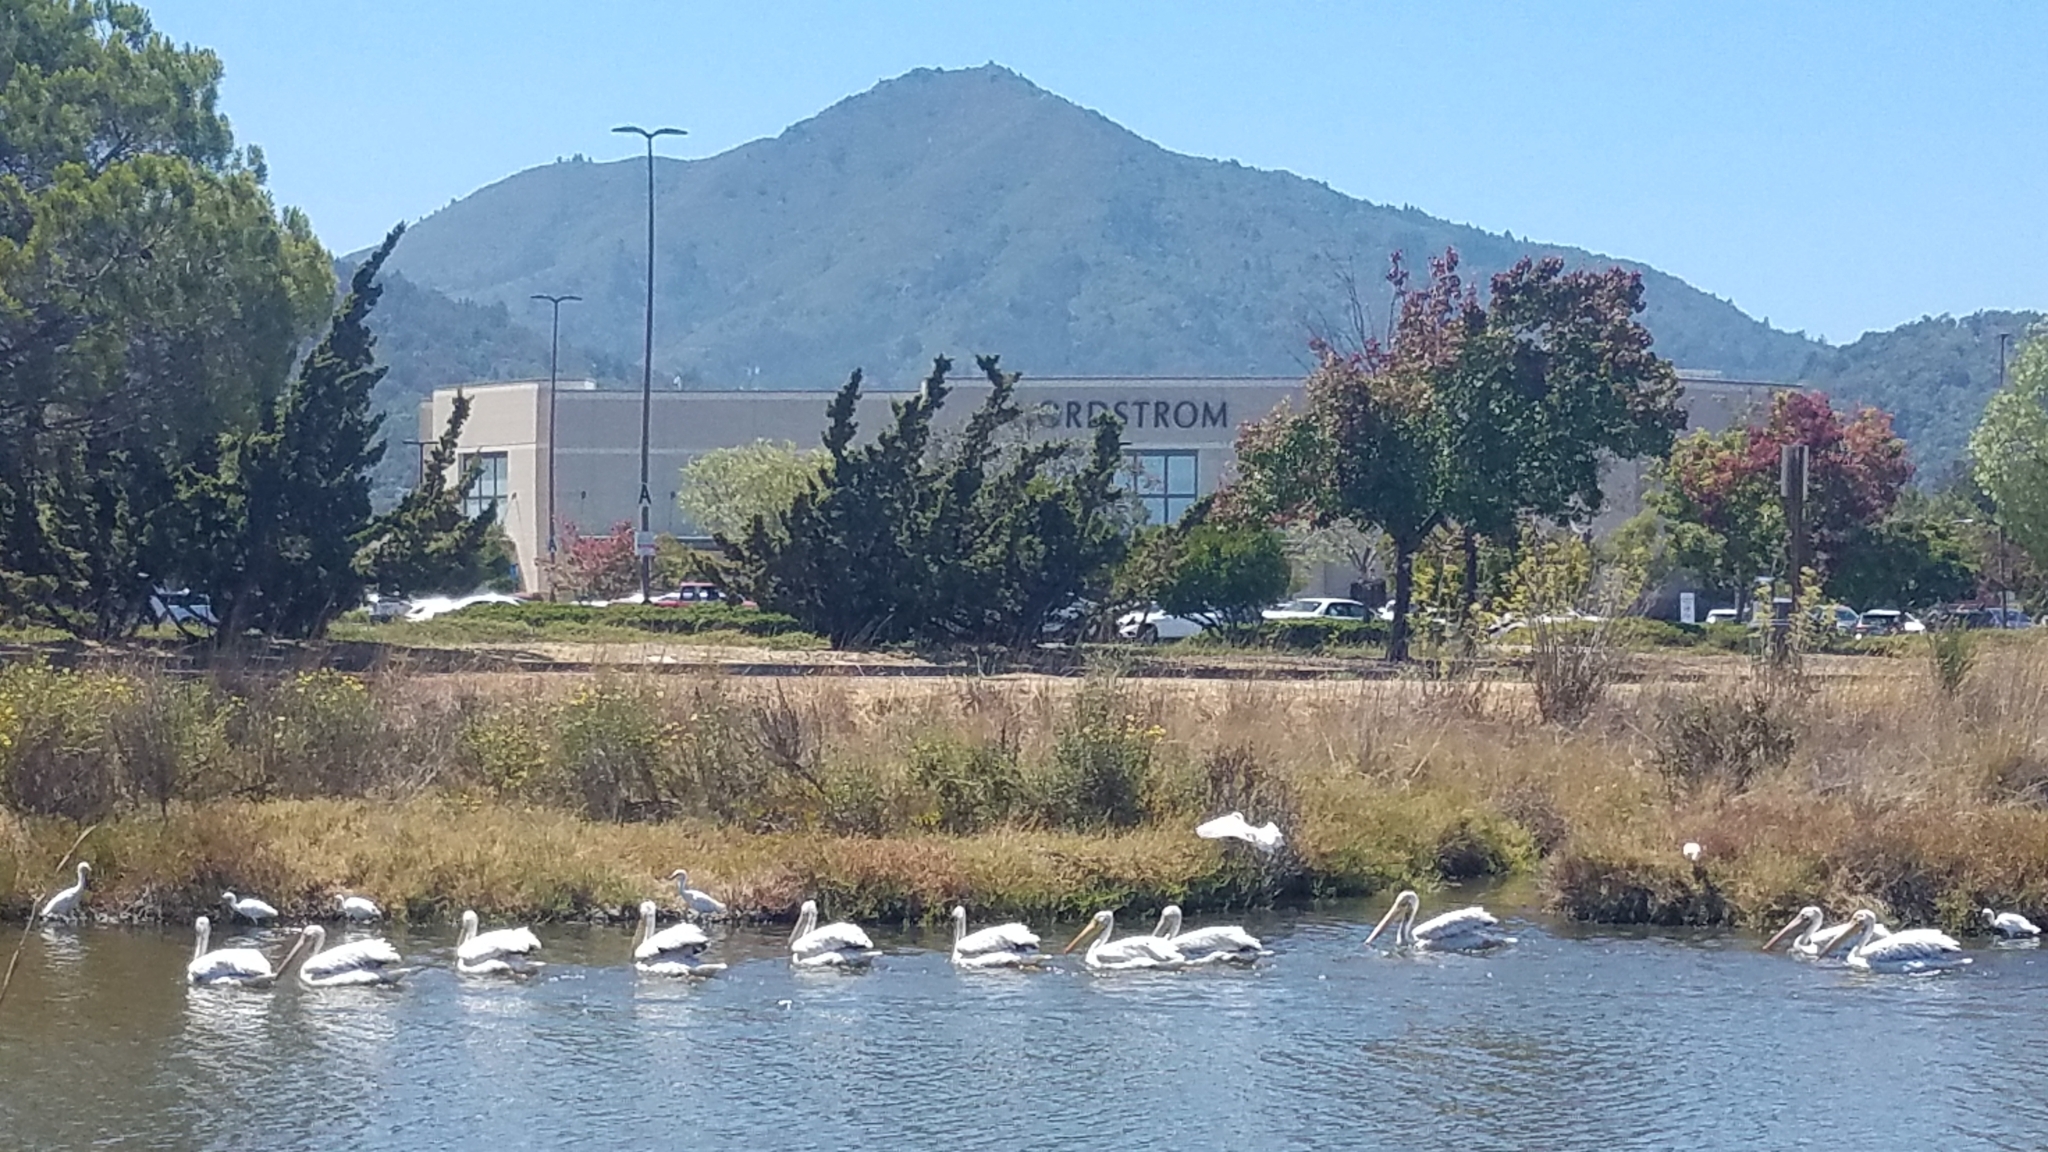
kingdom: Animalia
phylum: Chordata
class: Aves
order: Pelecaniformes
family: Pelecanidae
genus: Pelecanus
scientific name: Pelecanus erythrorhynchos
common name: American white pelican
